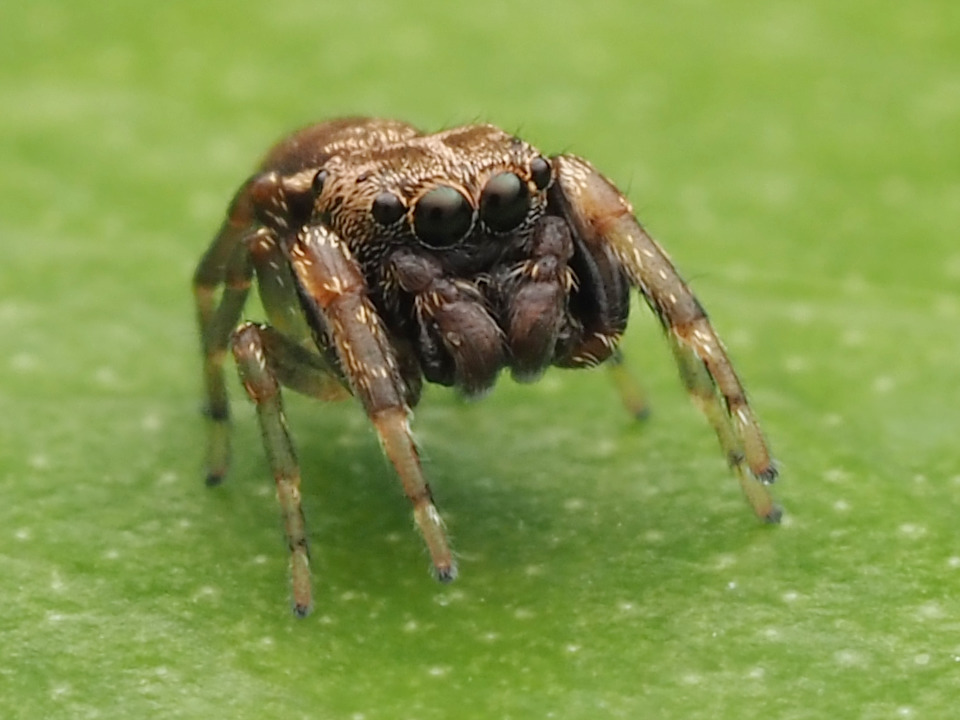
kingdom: Animalia
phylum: Arthropoda
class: Arachnida
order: Araneae
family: Salticidae
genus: Zygoballus
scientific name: Zygoballus nervosus
